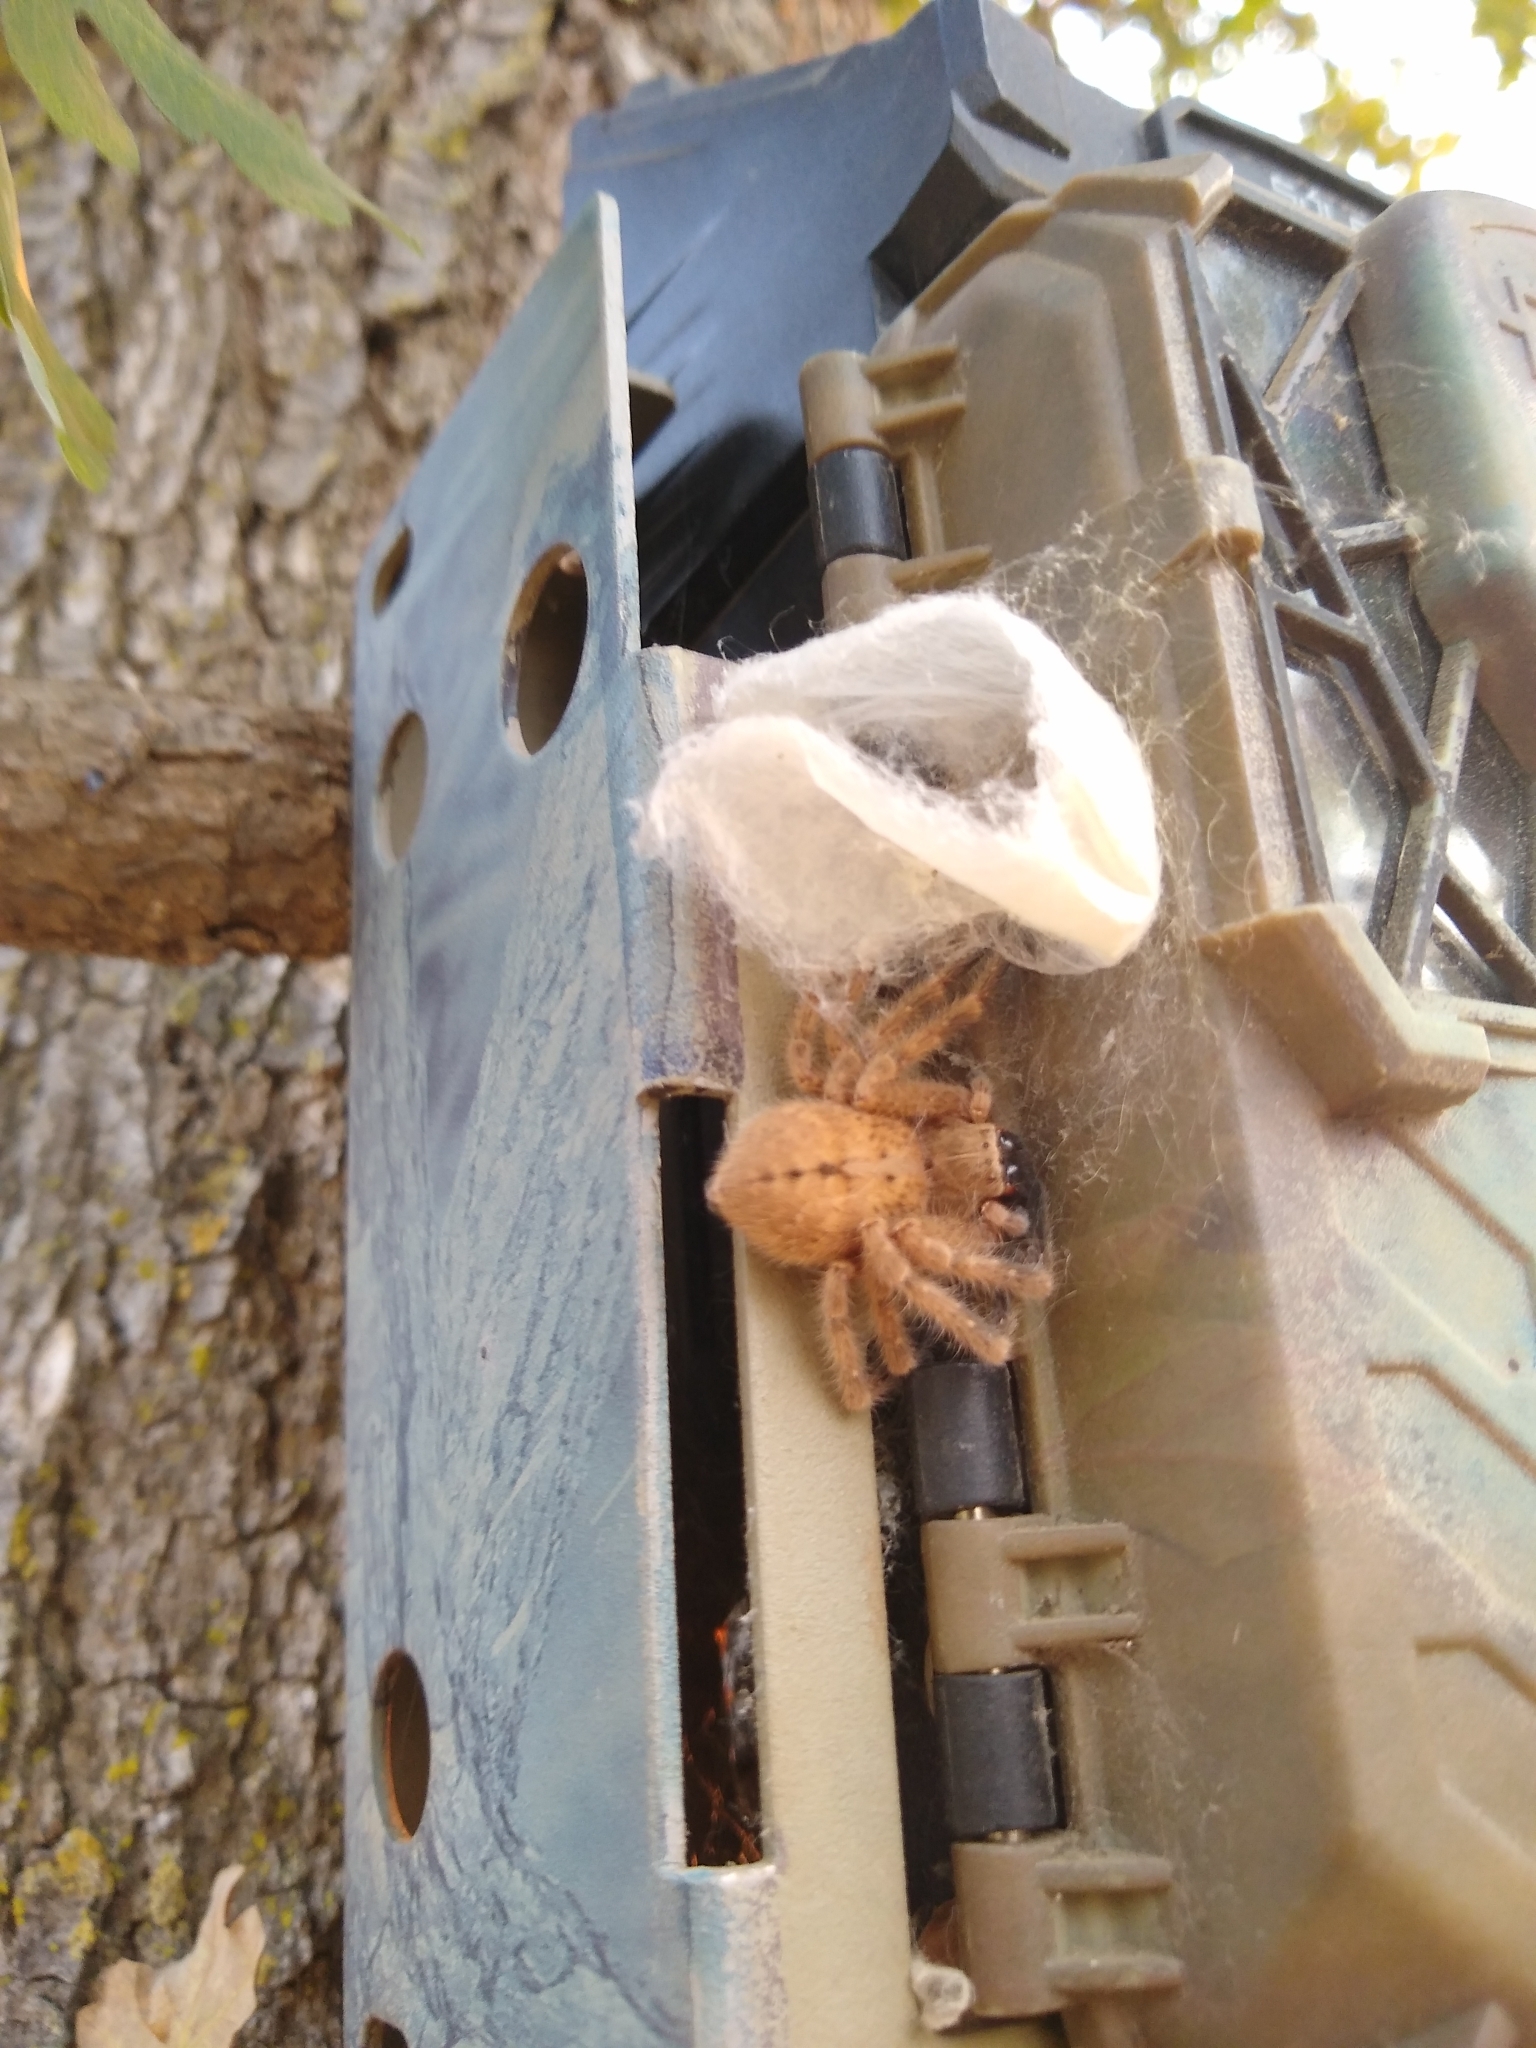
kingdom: Animalia
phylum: Arthropoda
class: Arachnida
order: Araneae
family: Sparassidae
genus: Olios
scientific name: Olios giganteus
